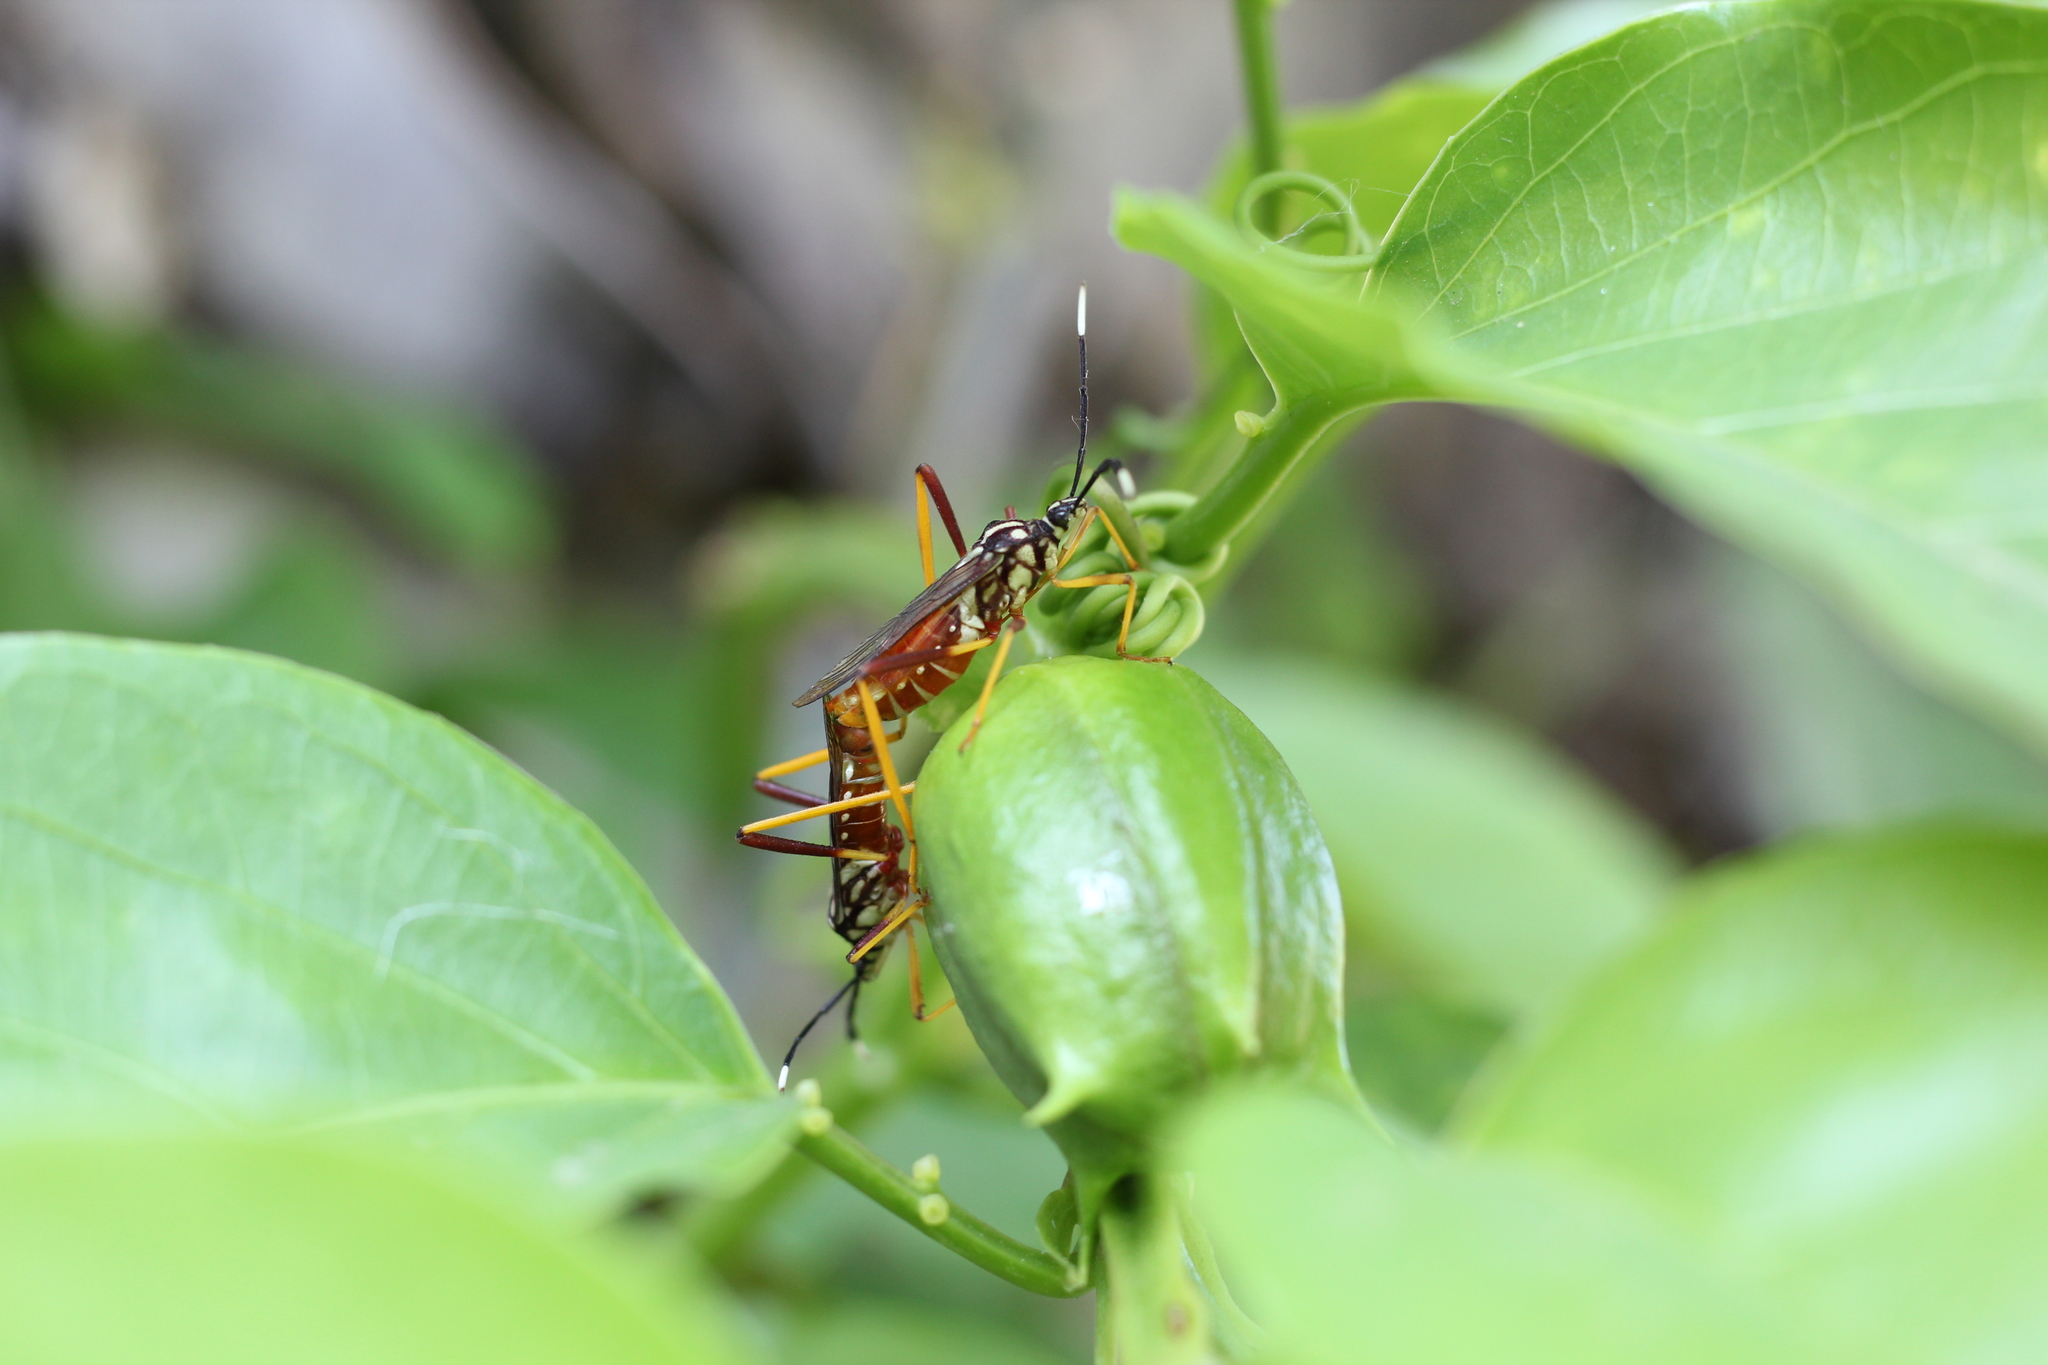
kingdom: Animalia
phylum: Arthropoda
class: Insecta
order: Hemiptera
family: Coreidae
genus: Holhymenia
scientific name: Holhymenia histrio
